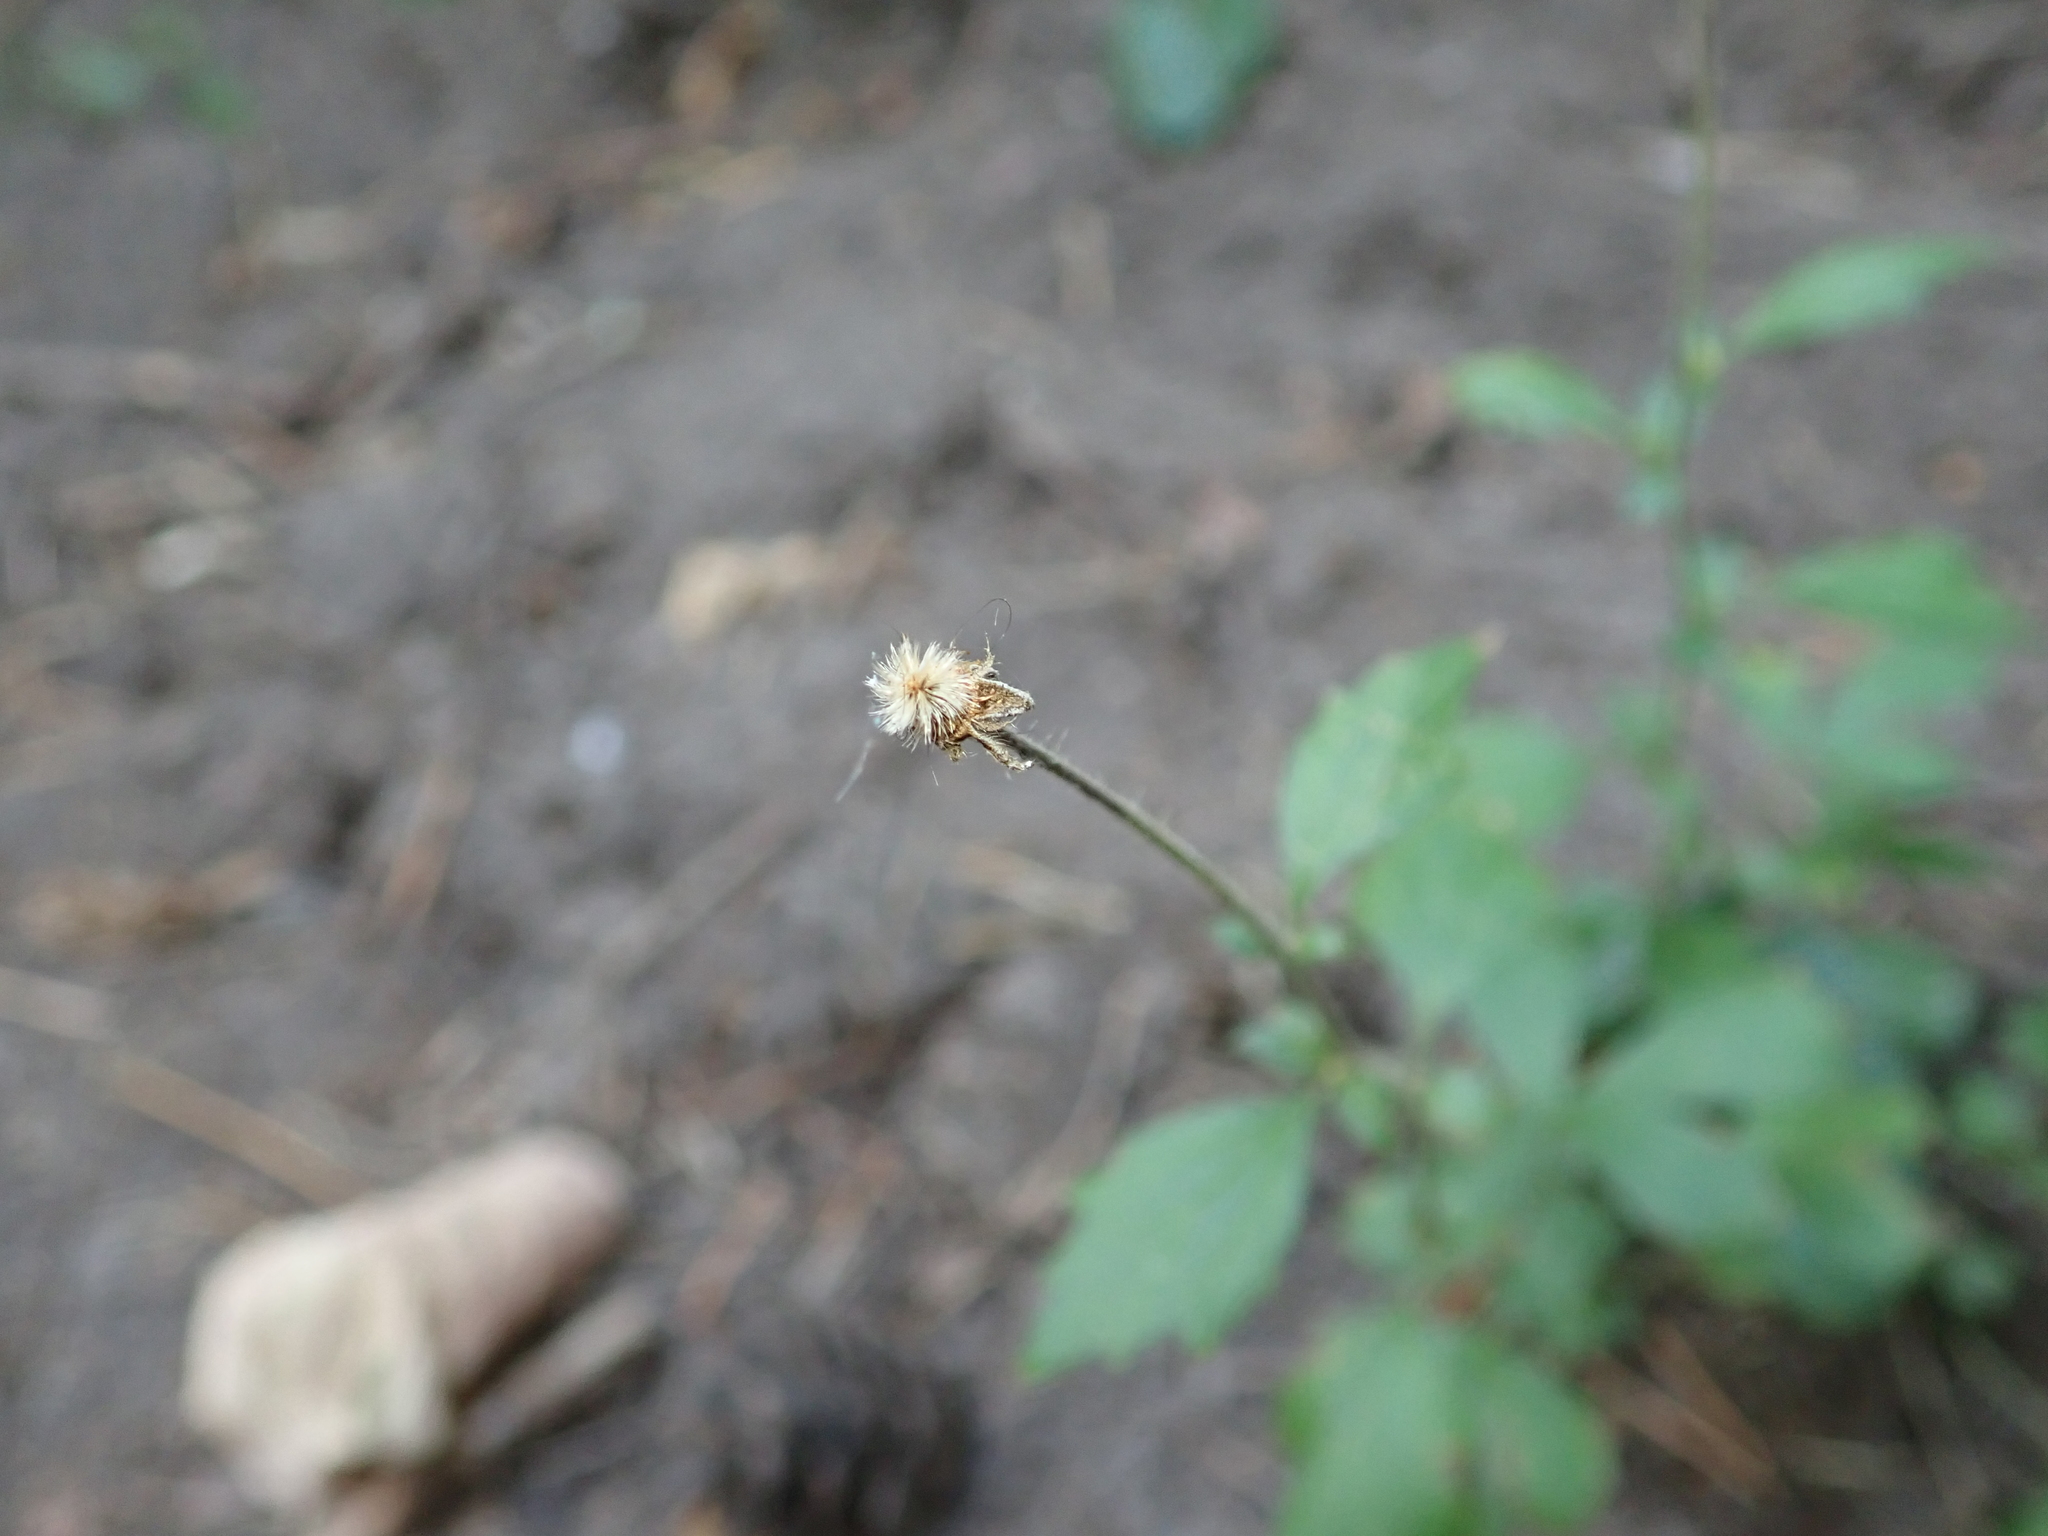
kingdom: Plantae
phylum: Tracheophyta
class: Magnoliopsida
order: Rosales
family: Rosaceae
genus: Geum
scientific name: Geum urbanum
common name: Wood avens
